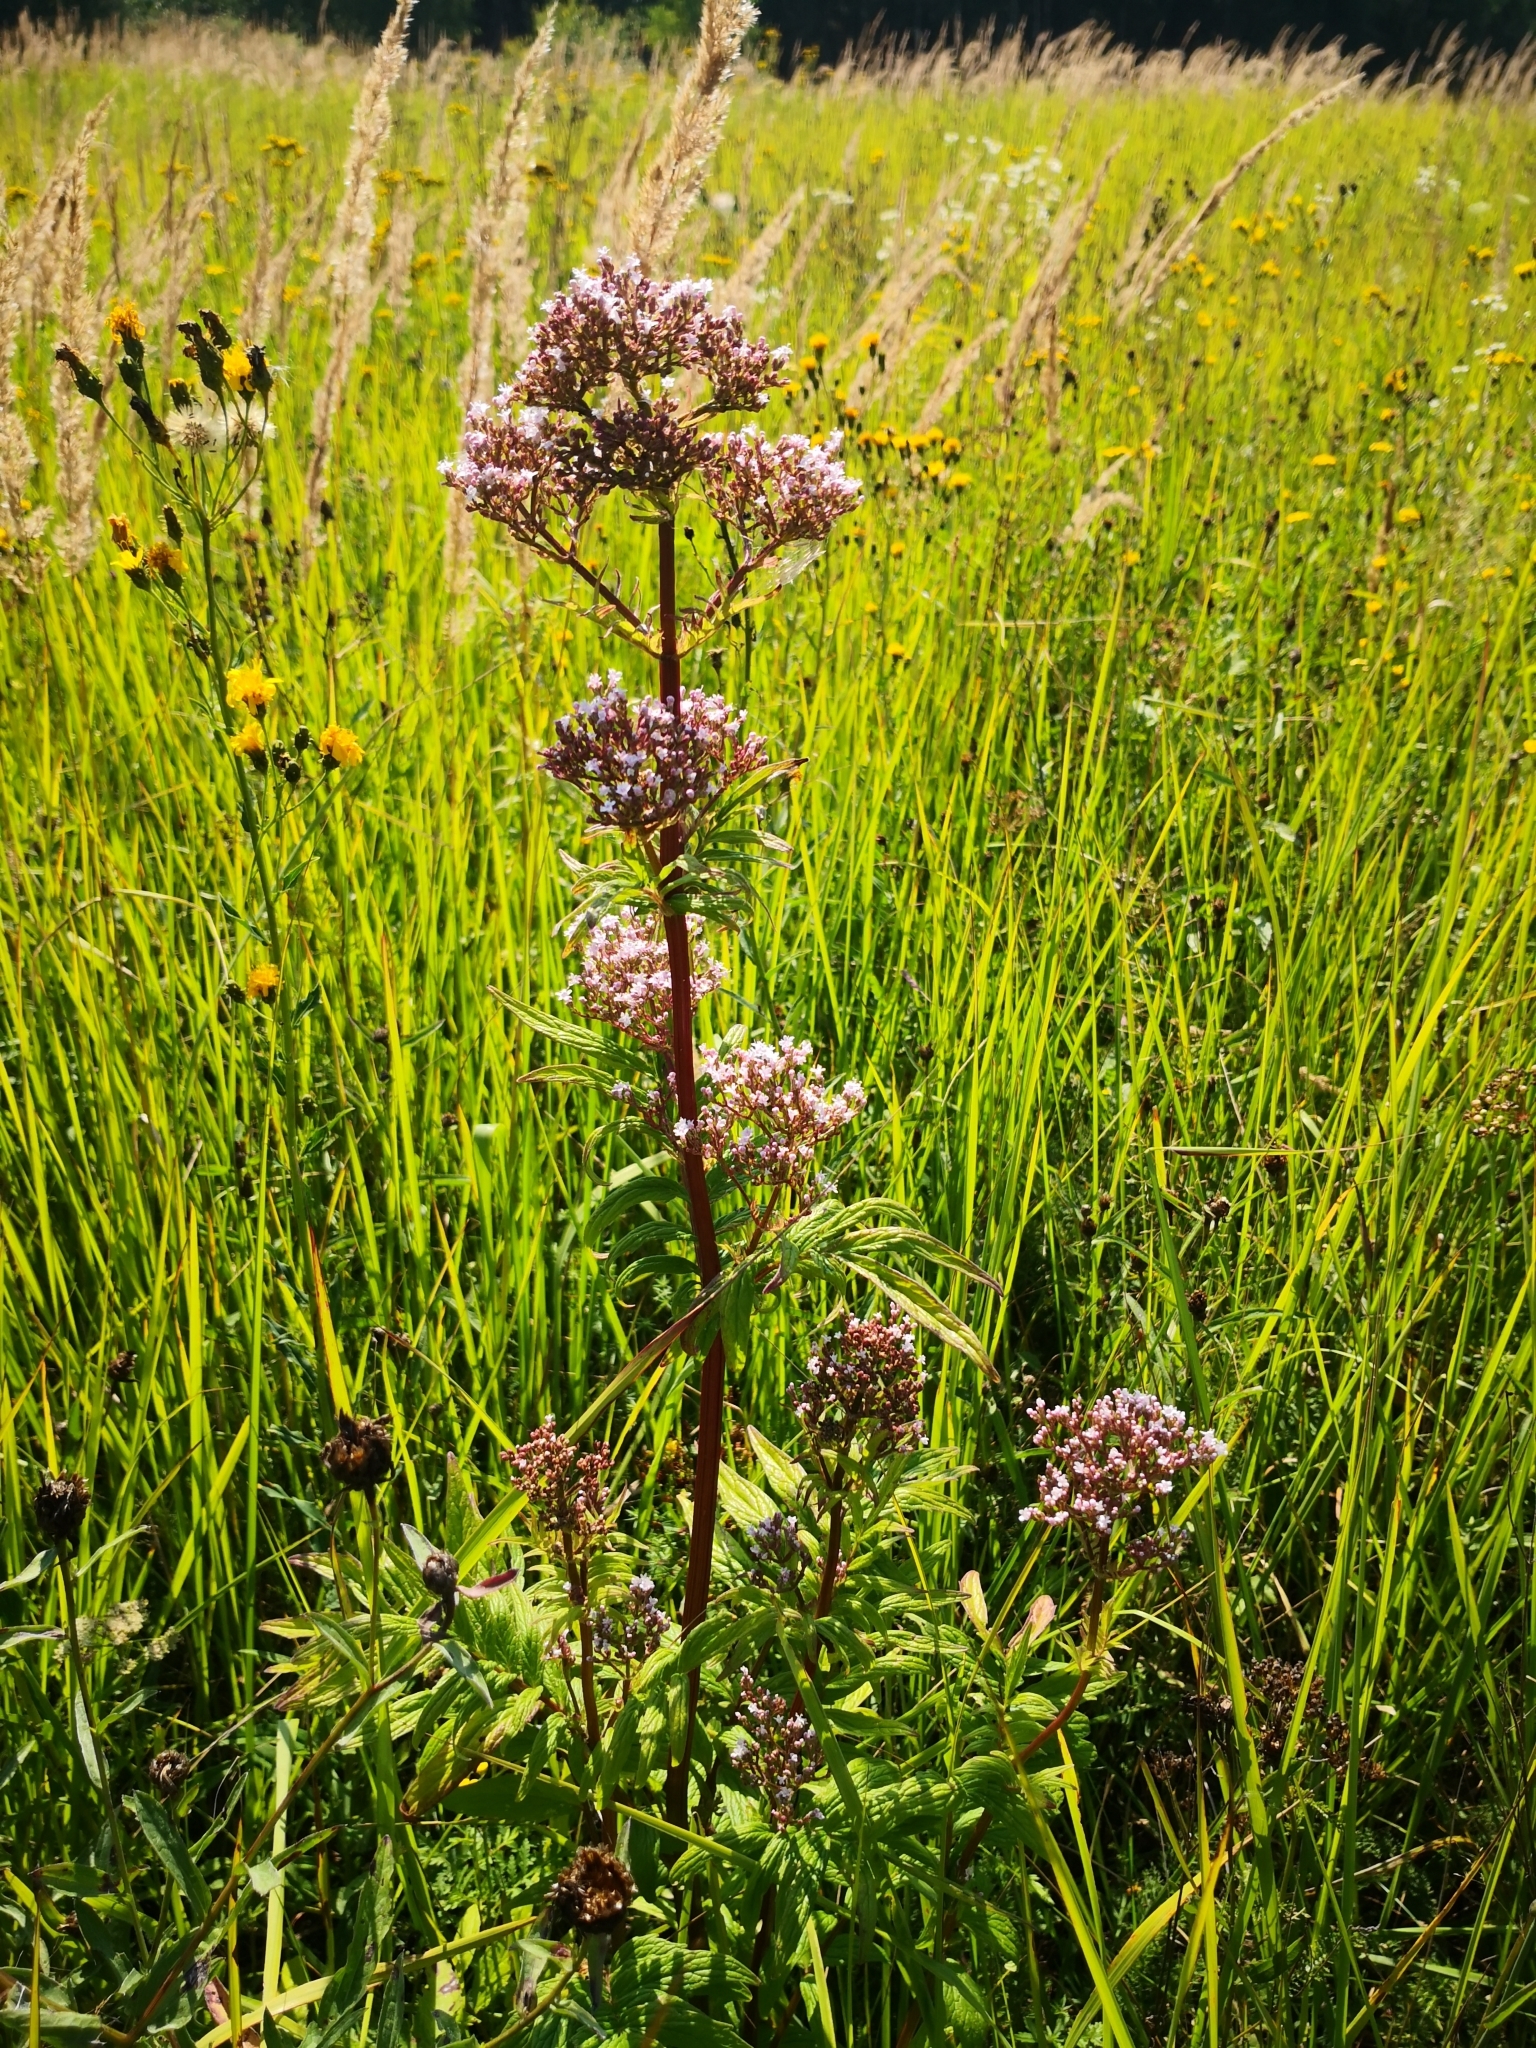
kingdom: Plantae
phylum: Tracheophyta
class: Magnoliopsida
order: Dipsacales
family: Caprifoliaceae
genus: Valeriana
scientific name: Valeriana officinalis
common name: Common valerian
